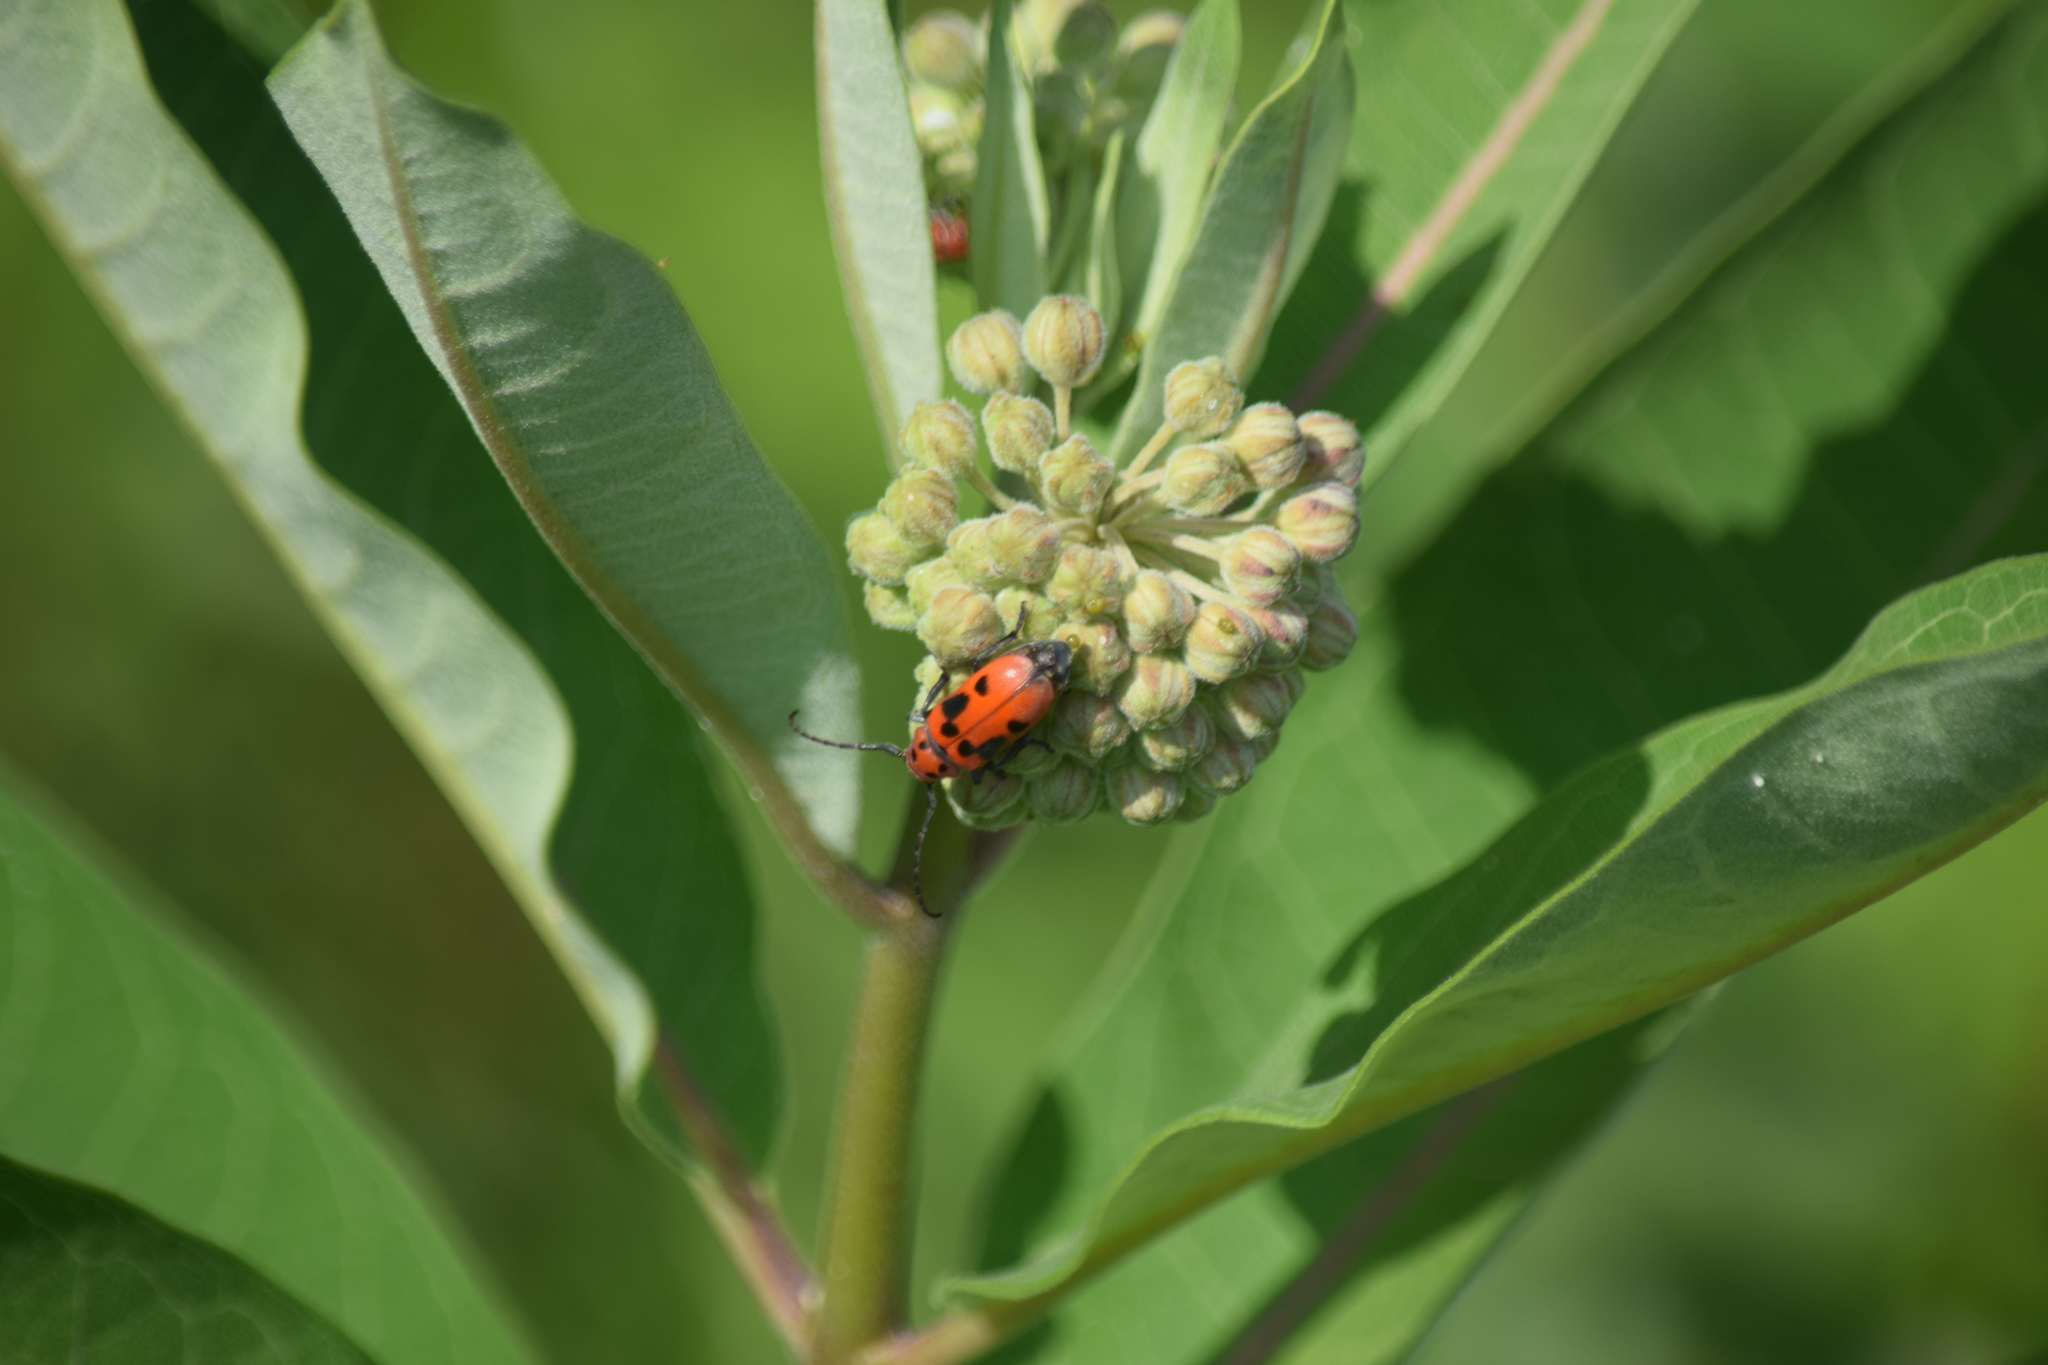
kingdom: Animalia
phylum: Arthropoda
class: Insecta
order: Coleoptera
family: Cerambycidae
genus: Tetraopes
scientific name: Tetraopes tetrophthalmus
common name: Red milkweed beetle
